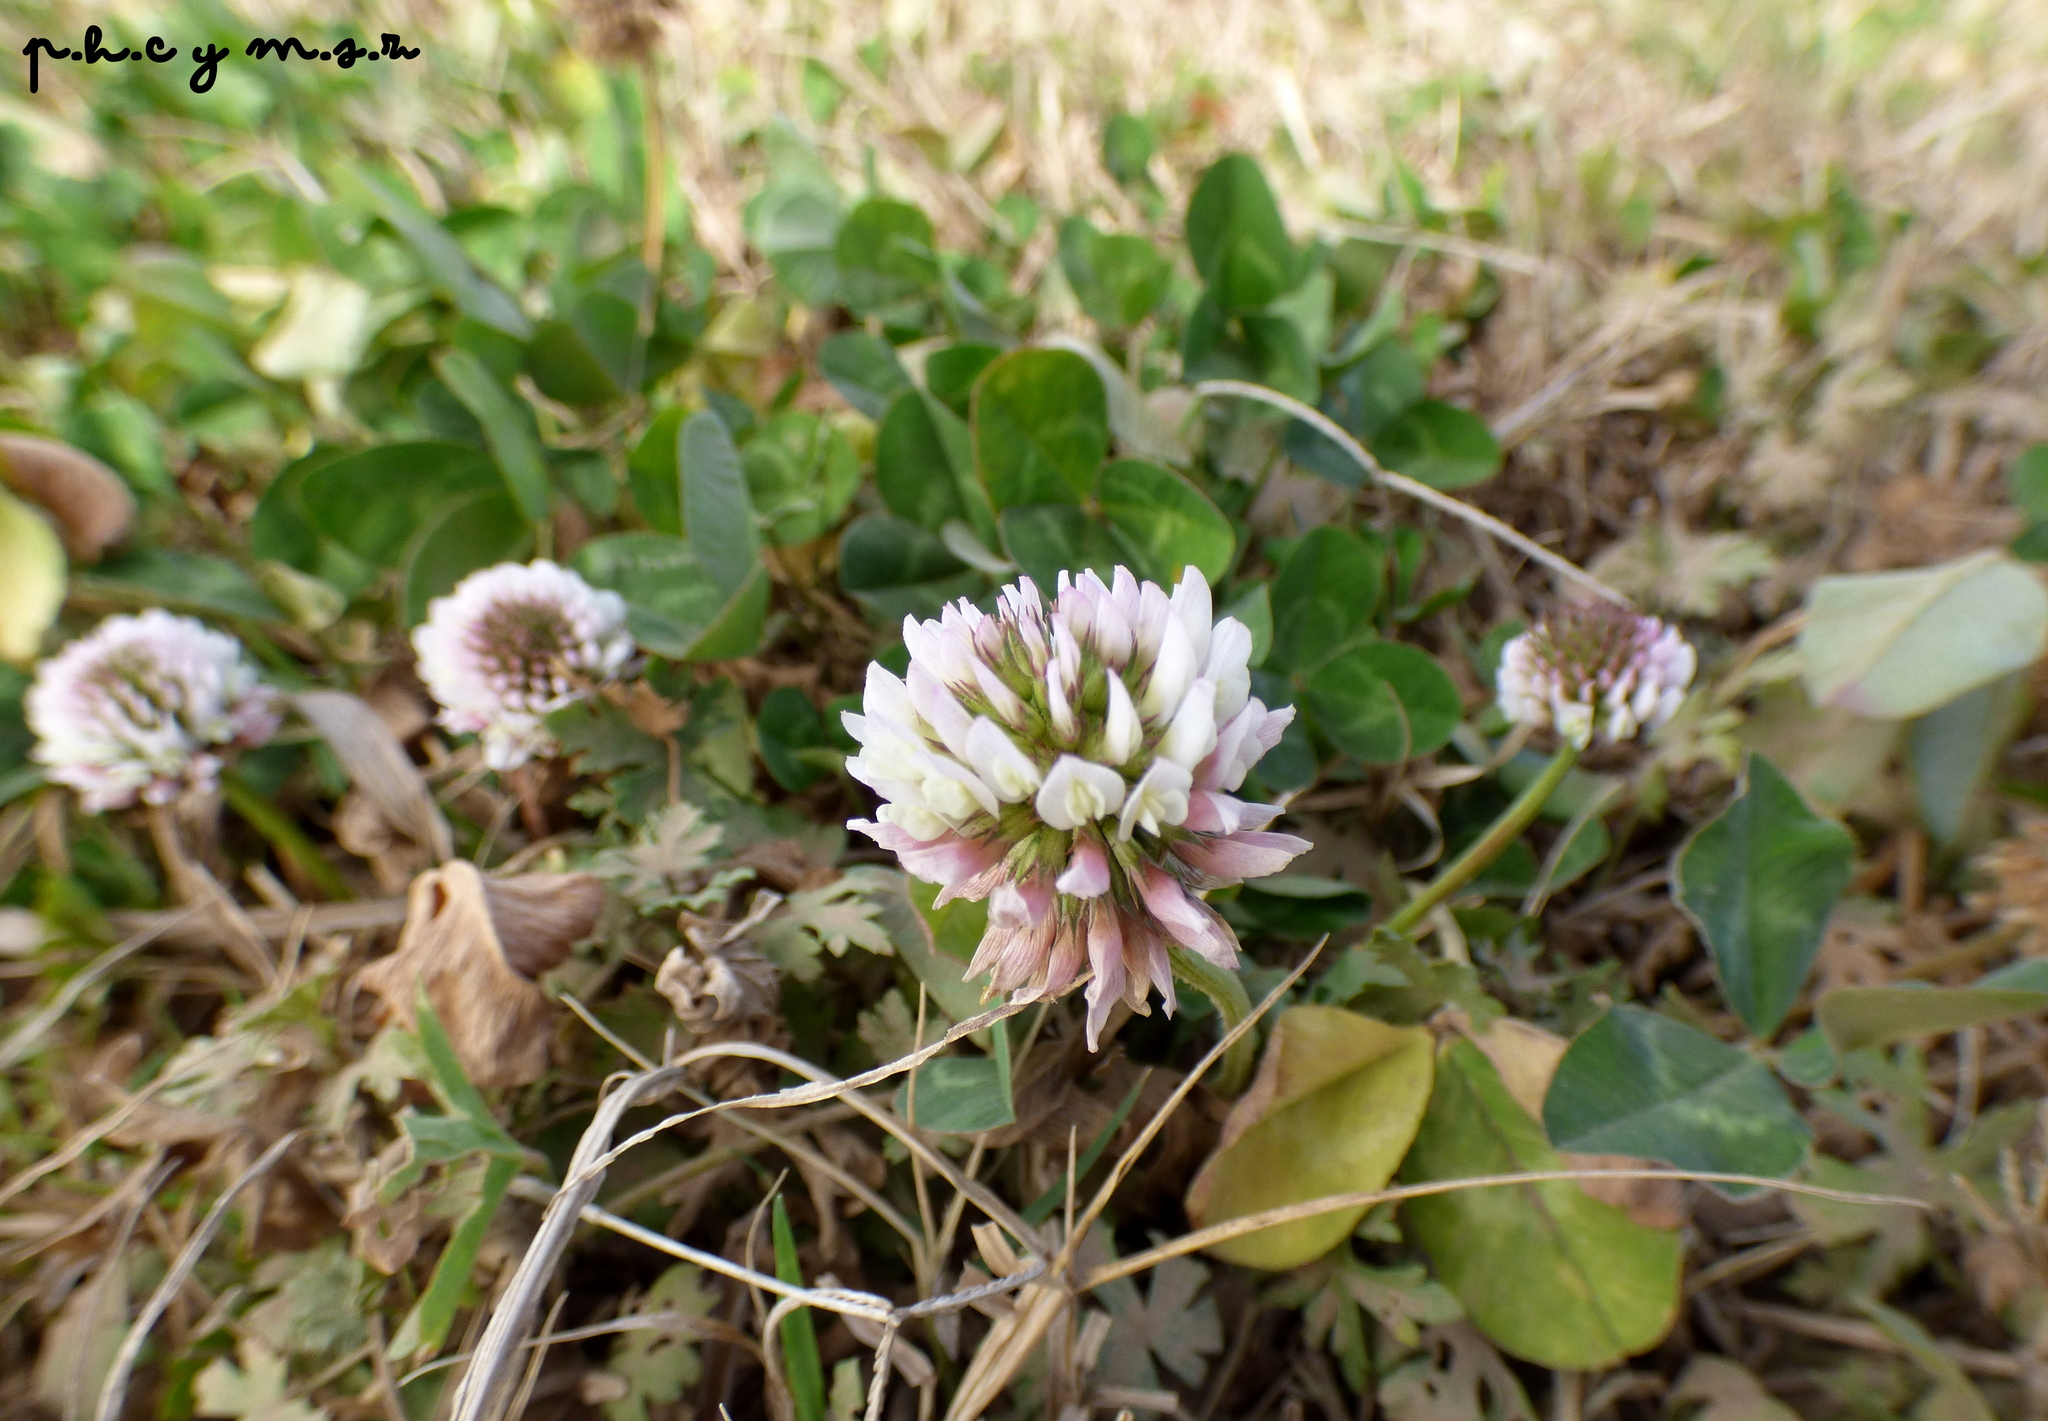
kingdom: Plantae
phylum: Tracheophyta
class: Magnoliopsida
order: Fabales
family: Fabaceae
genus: Trifolium
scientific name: Trifolium repens
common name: White clover
